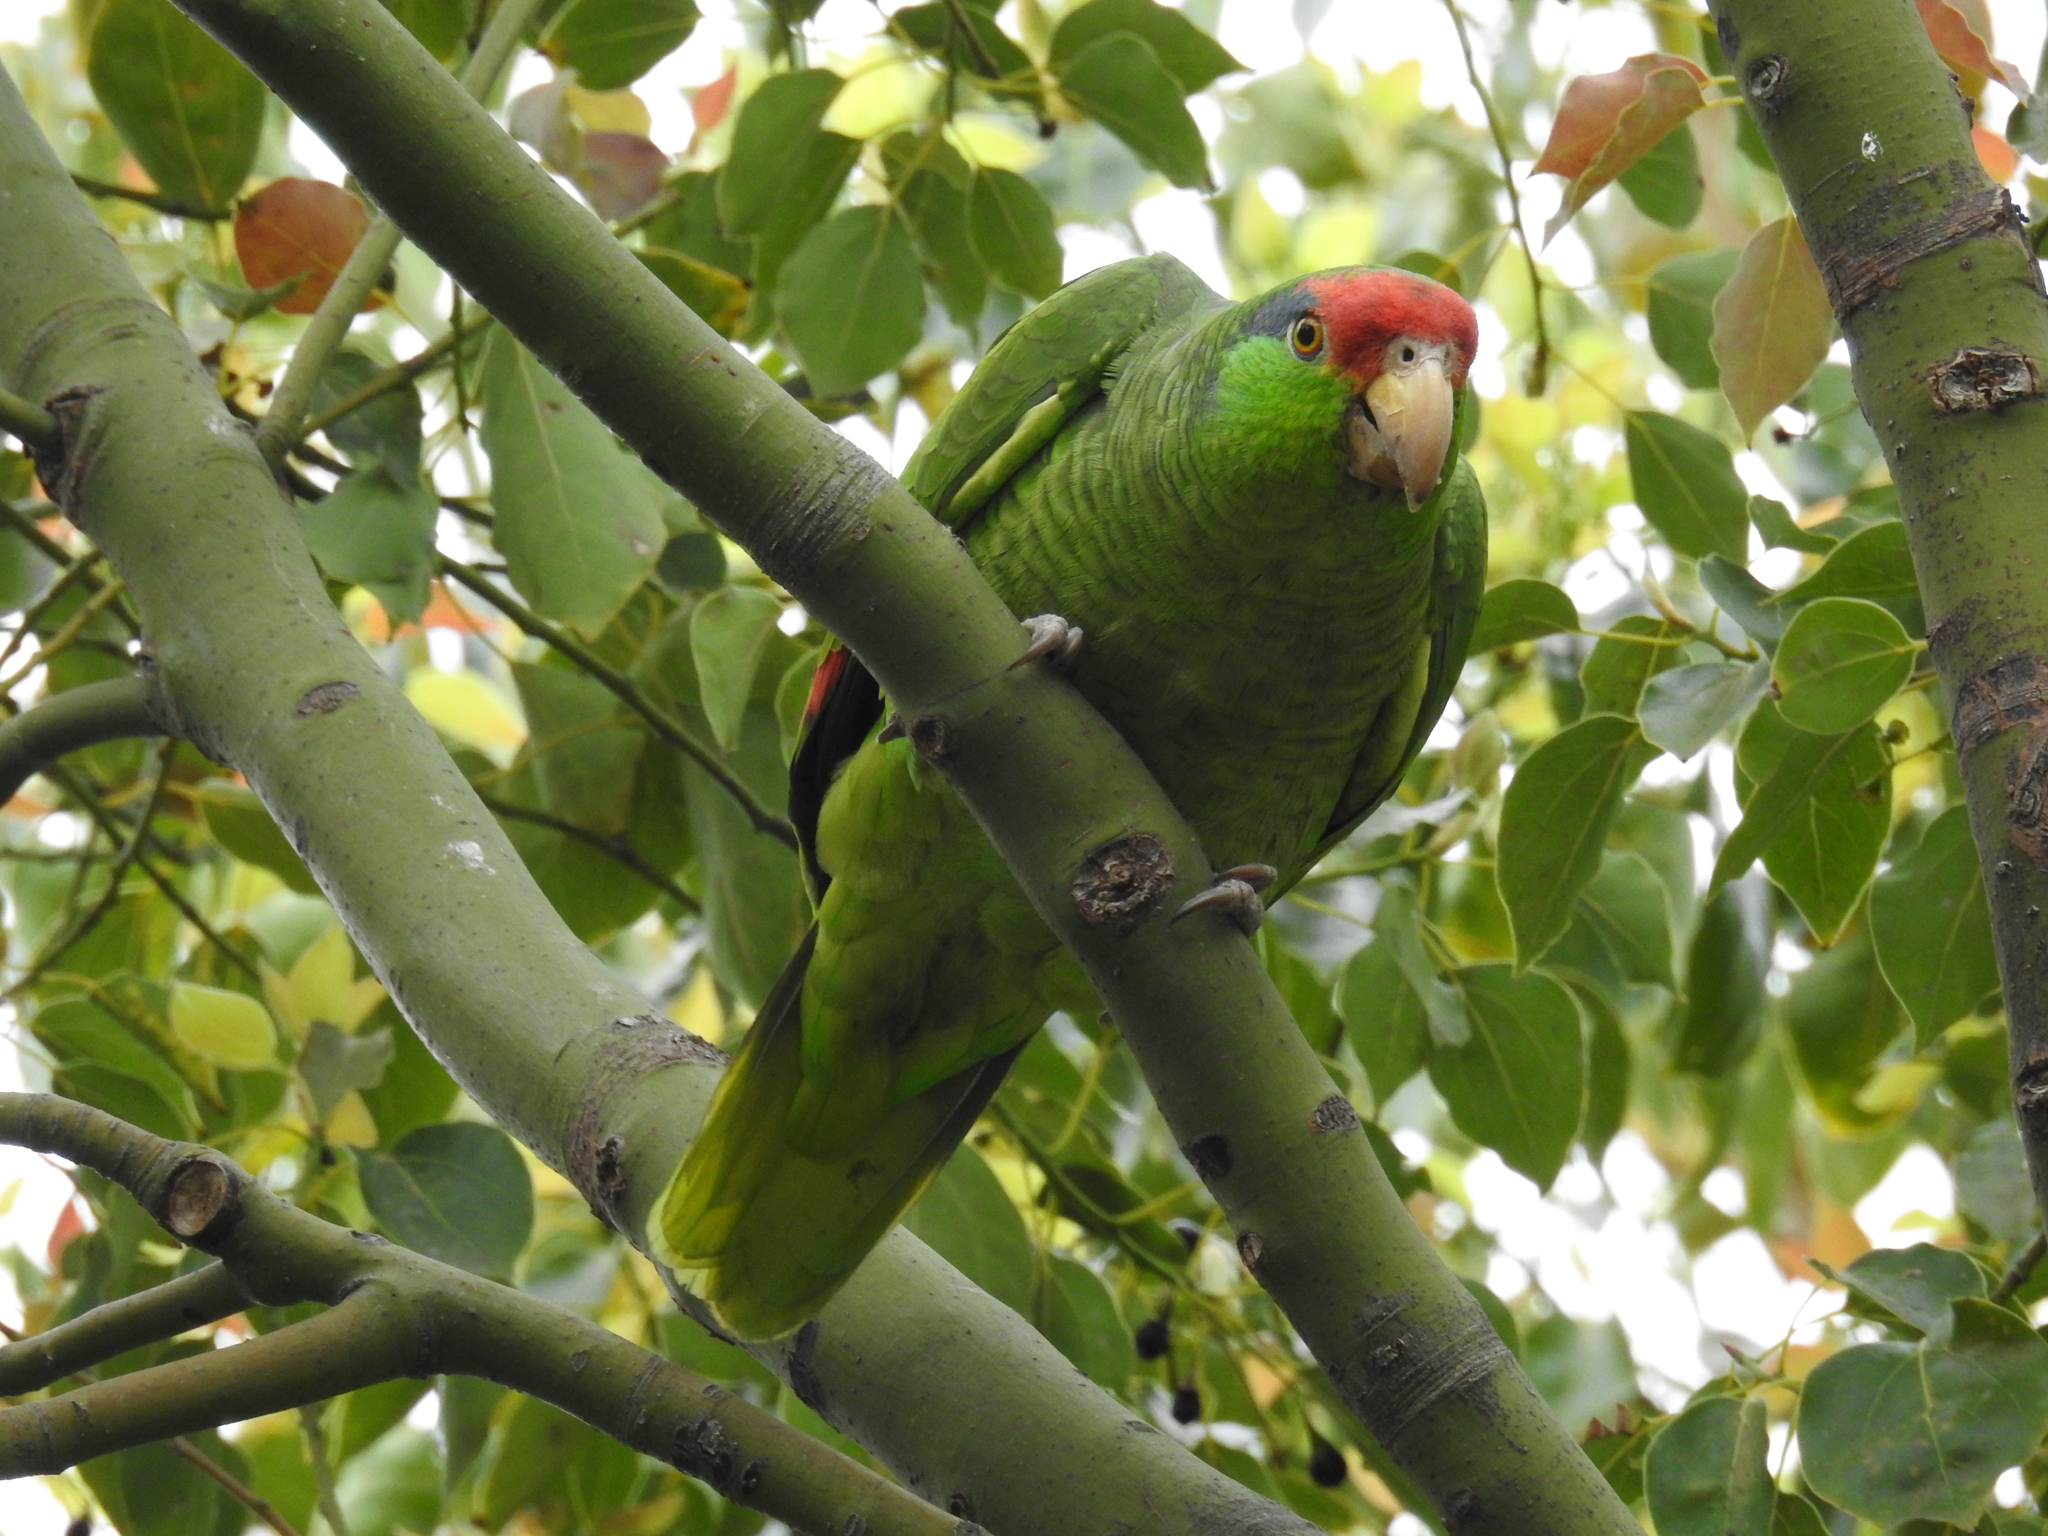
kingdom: Animalia
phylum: Chordata
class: Aves
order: Psittaciformes
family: Psittacidae
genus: Amazona
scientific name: Amazona viridigenalis
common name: Red-crowned amazon
